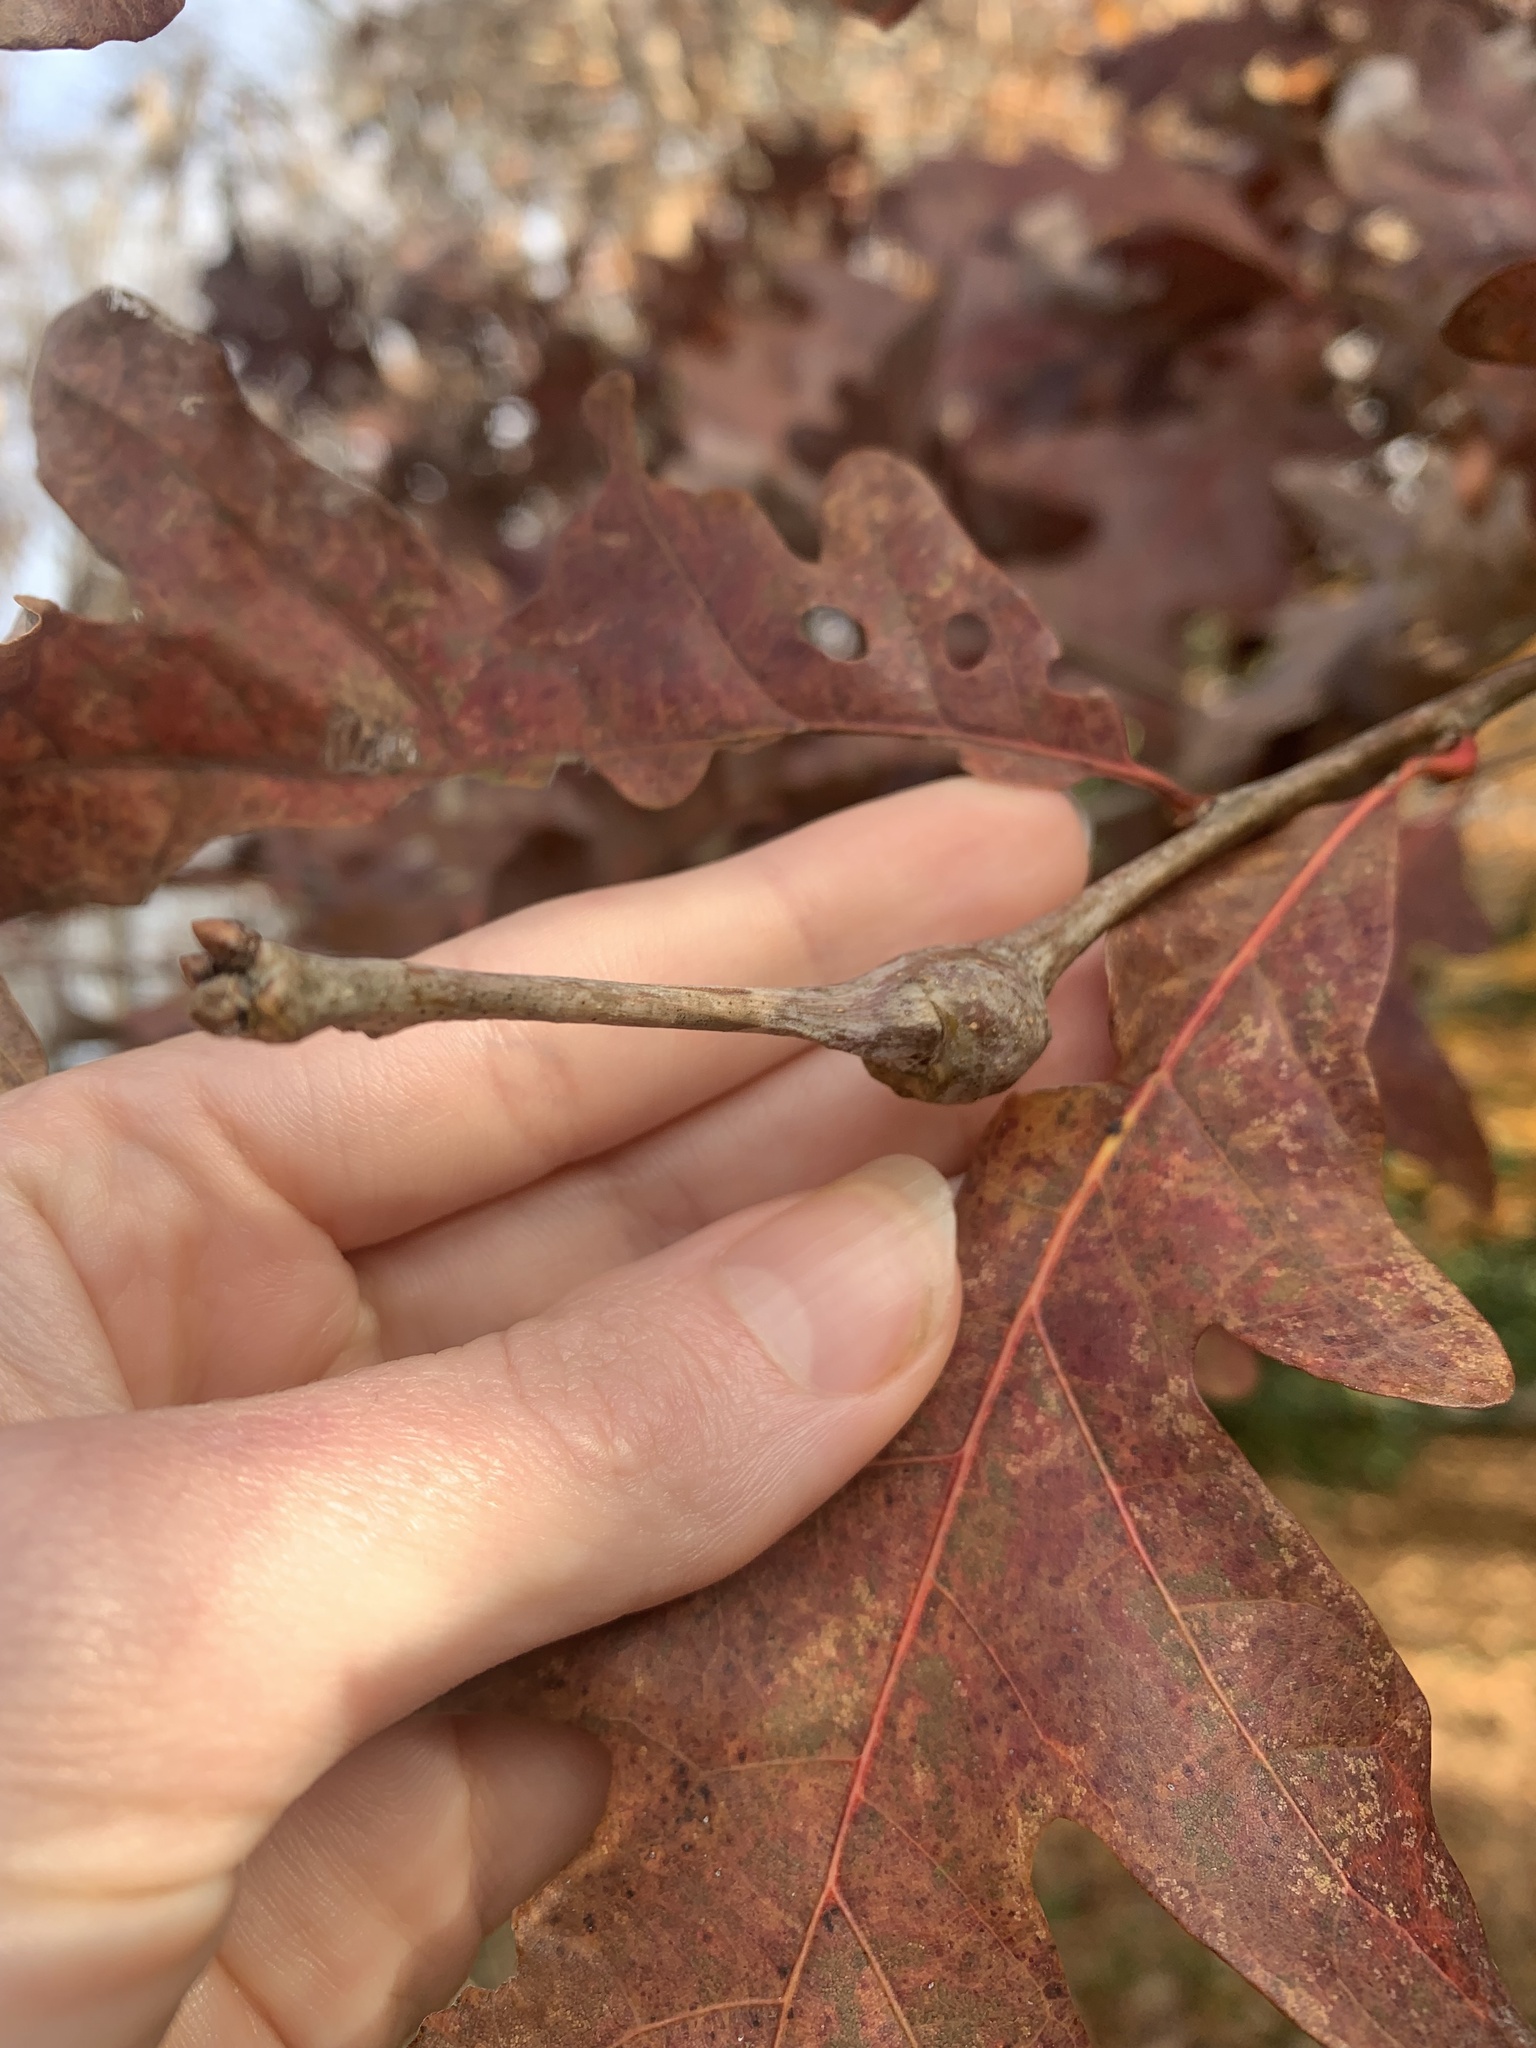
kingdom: Animalia
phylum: Arthropoda
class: Insecta
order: Hymenoptera
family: Cynipidae
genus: Callirhytis
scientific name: Callirhytis clavula
